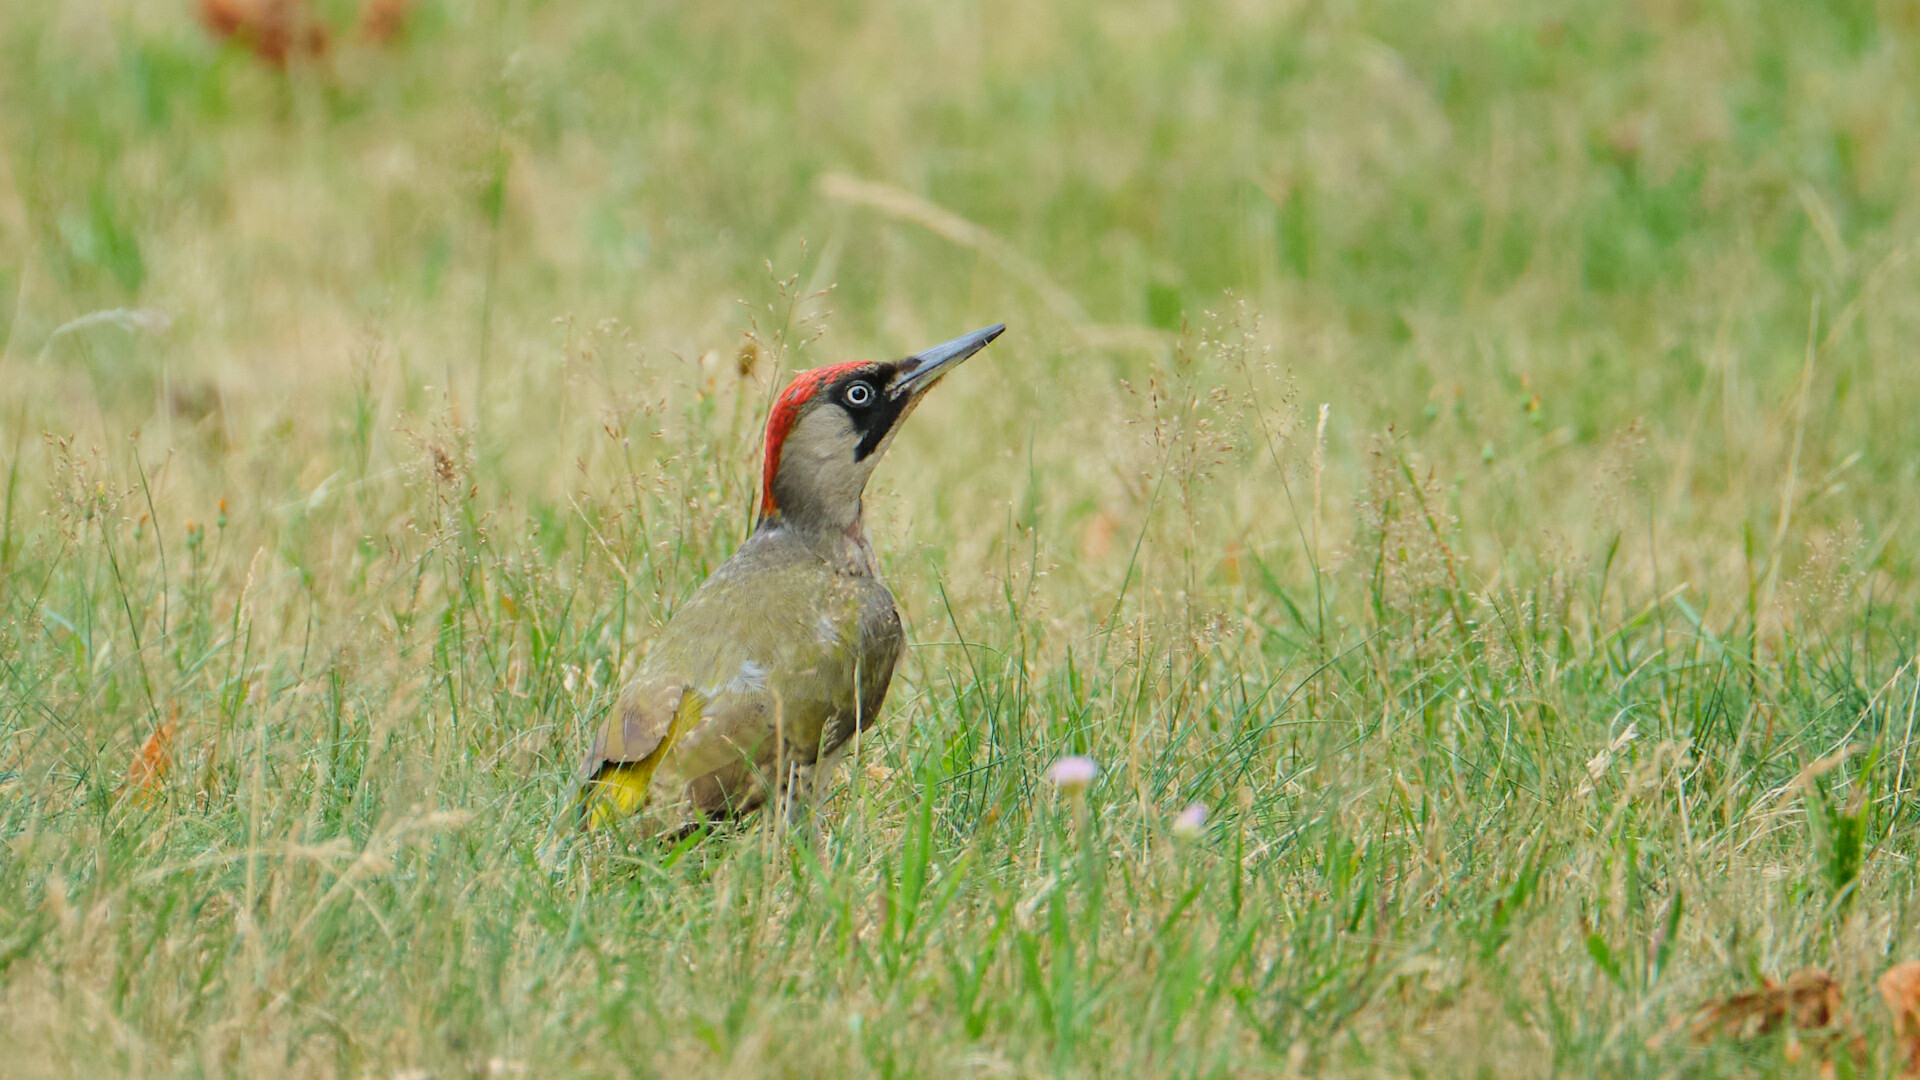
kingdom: Animalia
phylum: Chordata
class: Aves
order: Piciformes
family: Picidae
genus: Picus
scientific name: Picus viridis
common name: European green woodpecker
